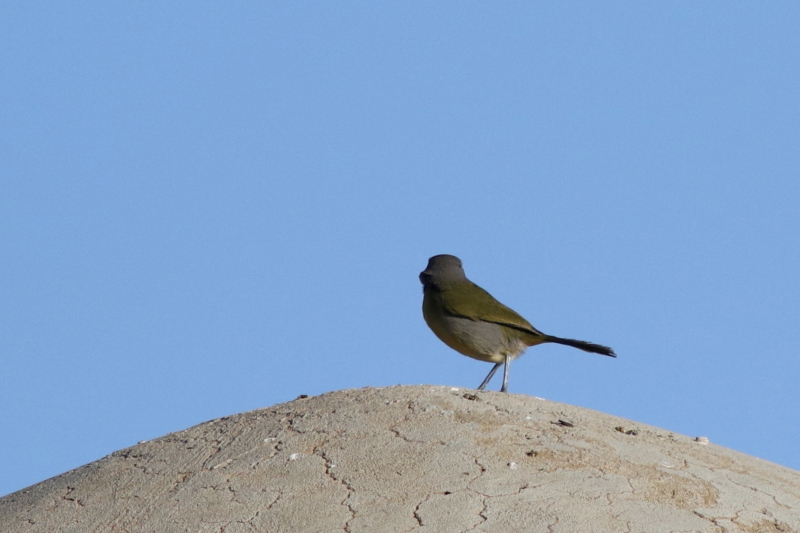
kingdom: Animalia
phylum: Chordata
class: Aves
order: Passeriformes
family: Malaconotidae
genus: Telophorus
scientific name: Telophorus zeylonus
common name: Bokmakierie
